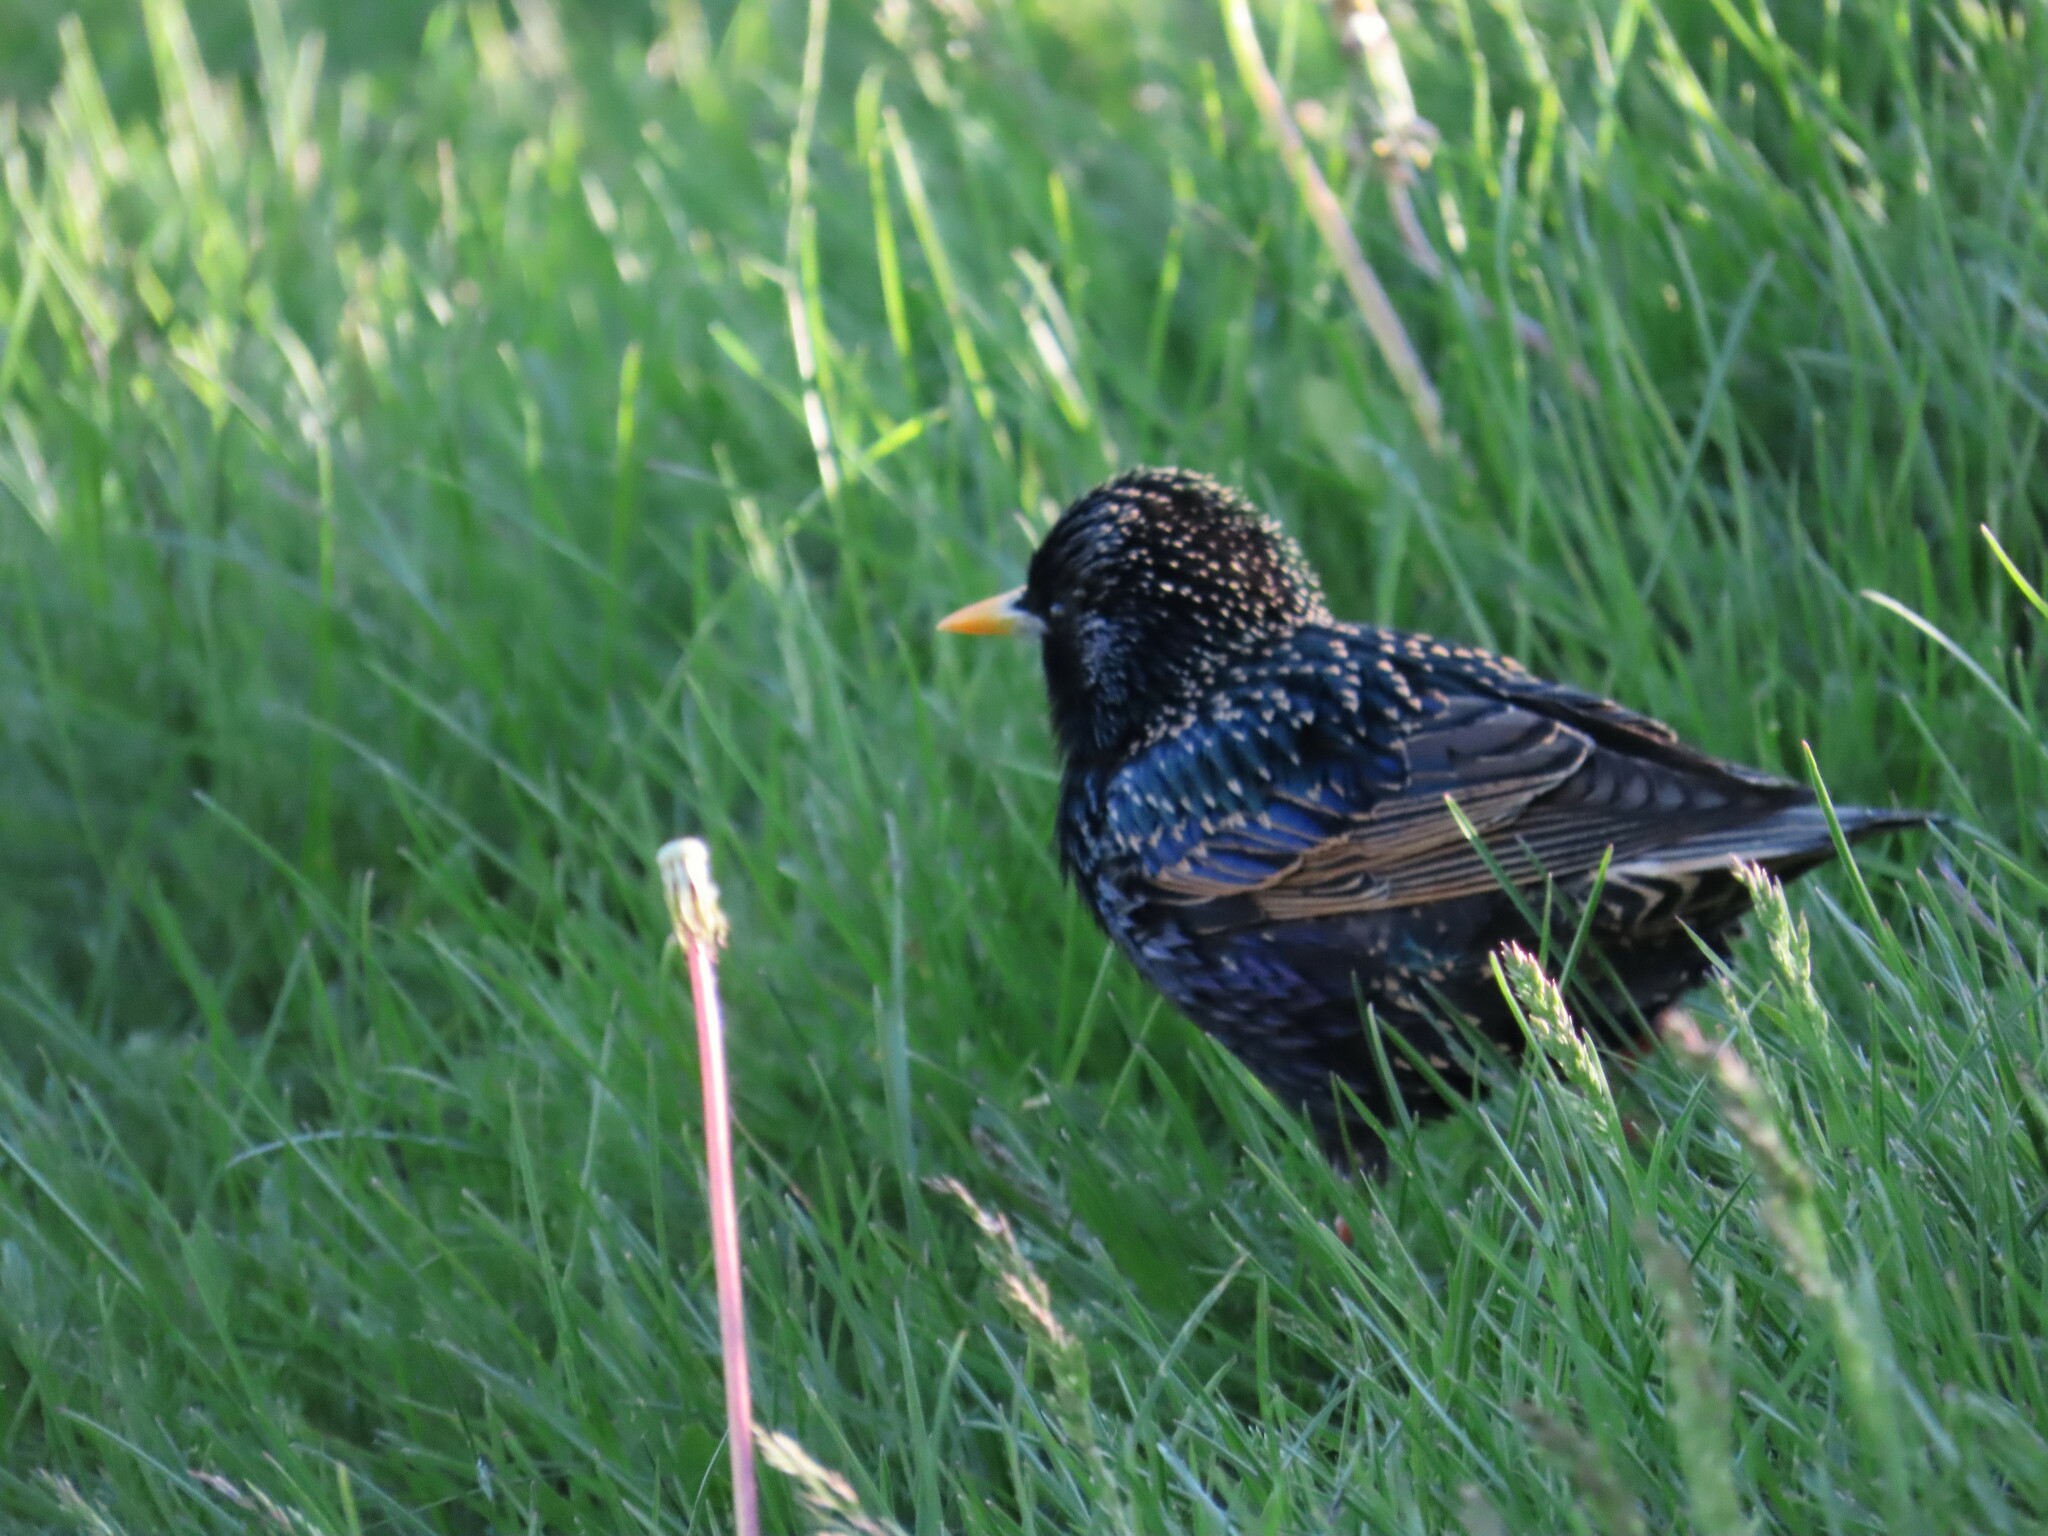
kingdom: Animalia
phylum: Chordata
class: Aves
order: Passeriformes
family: Sturnidae
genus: Sturnus
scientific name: Sturnus vulgaris
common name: Common starling
